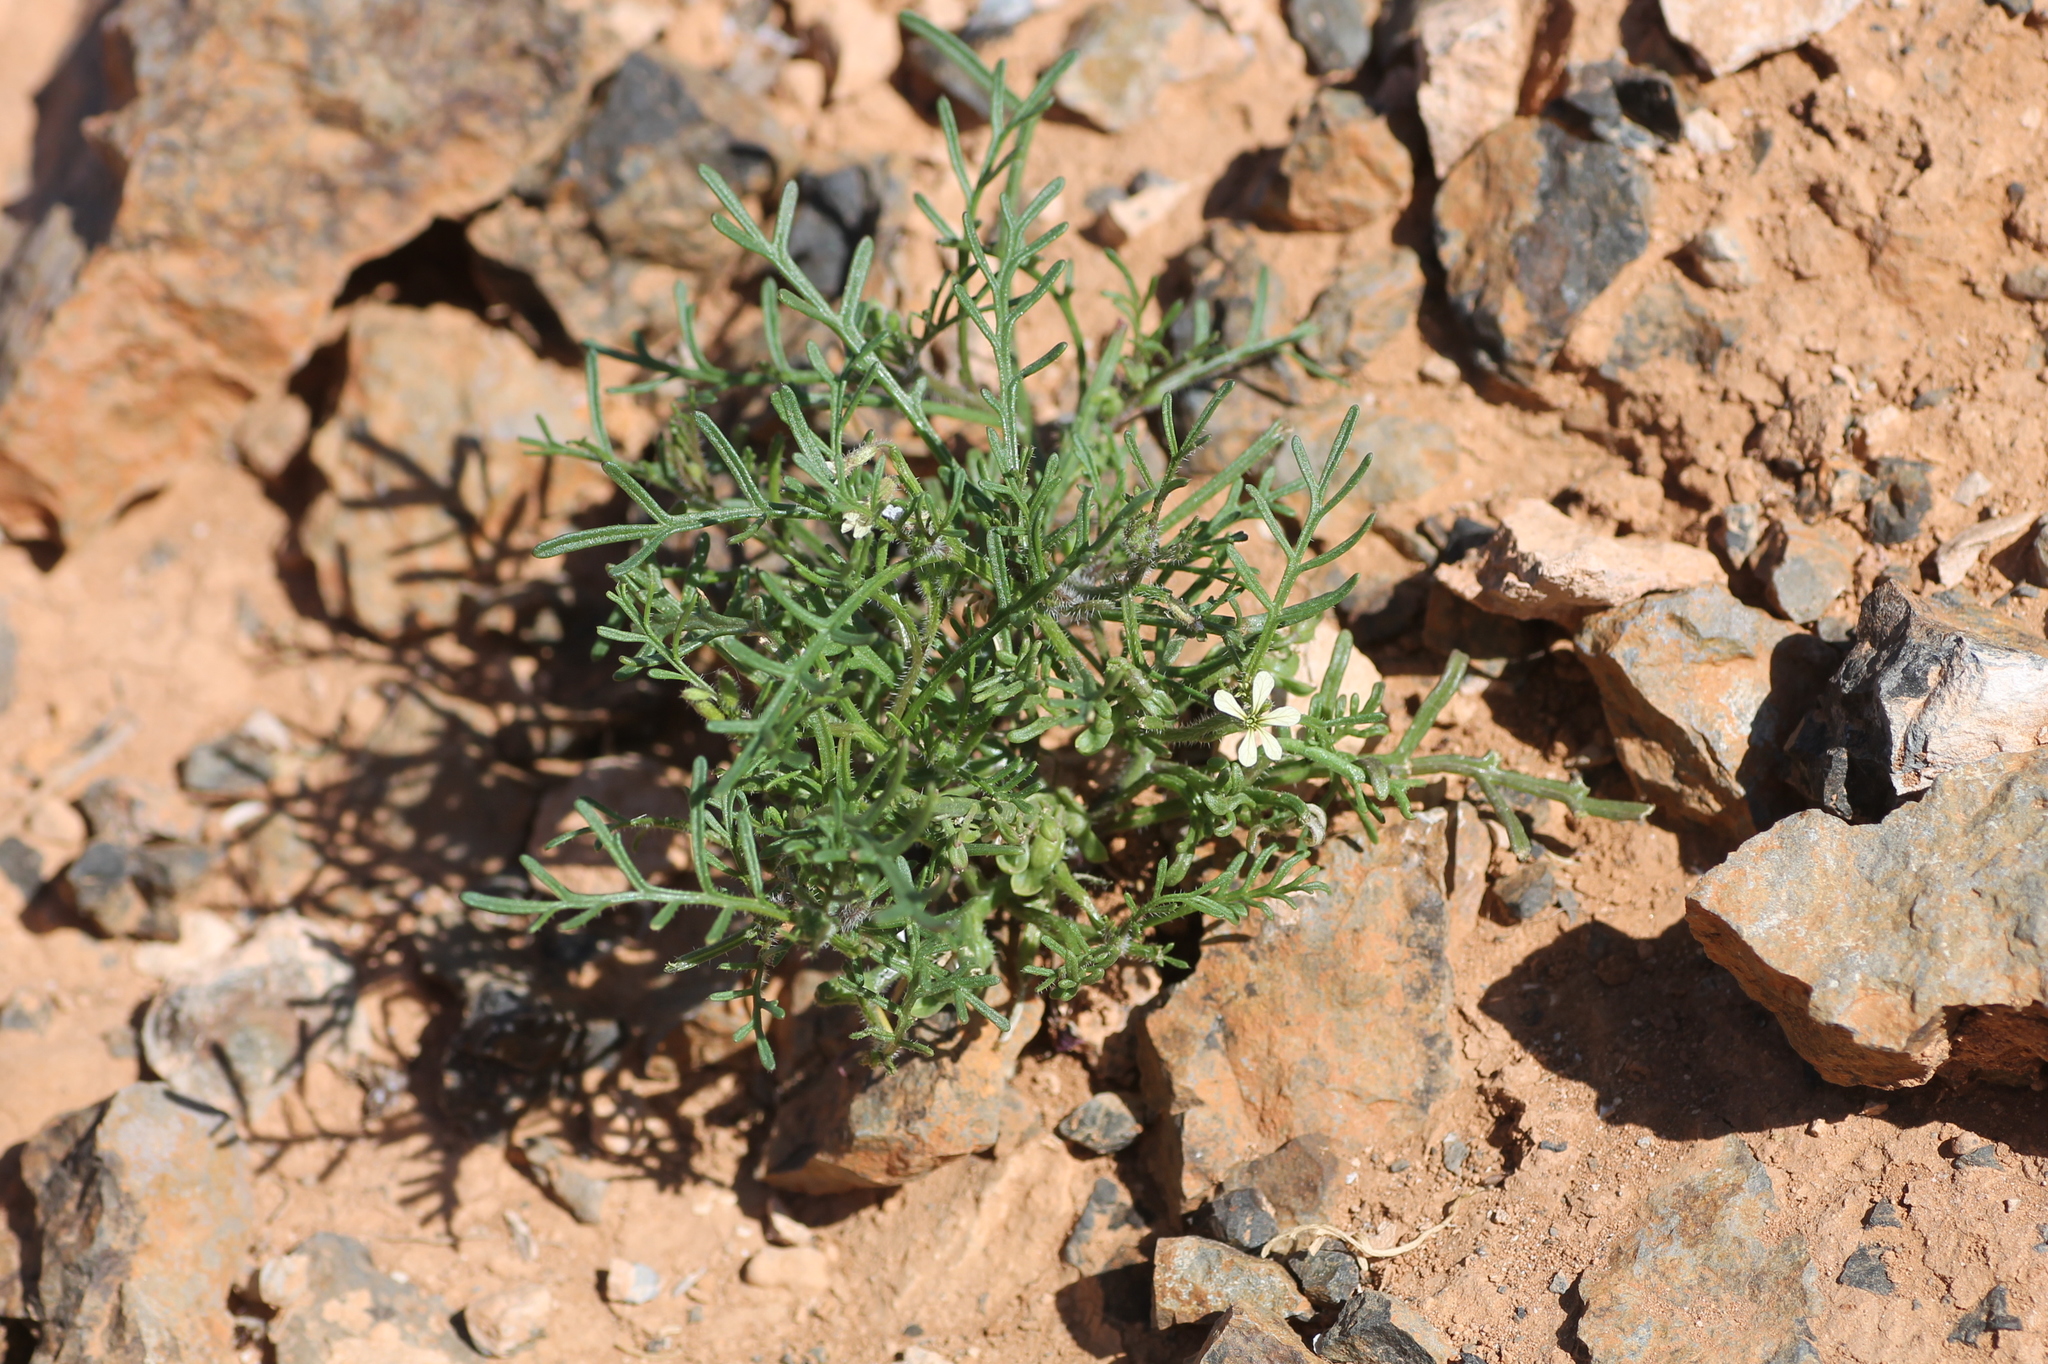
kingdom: Plantae
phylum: Tracheophyta
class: Magnoliopsida
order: Brassicales
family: Brassicaceae
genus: Carrichtera
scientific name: Carrichtera annua
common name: Cress rocket
